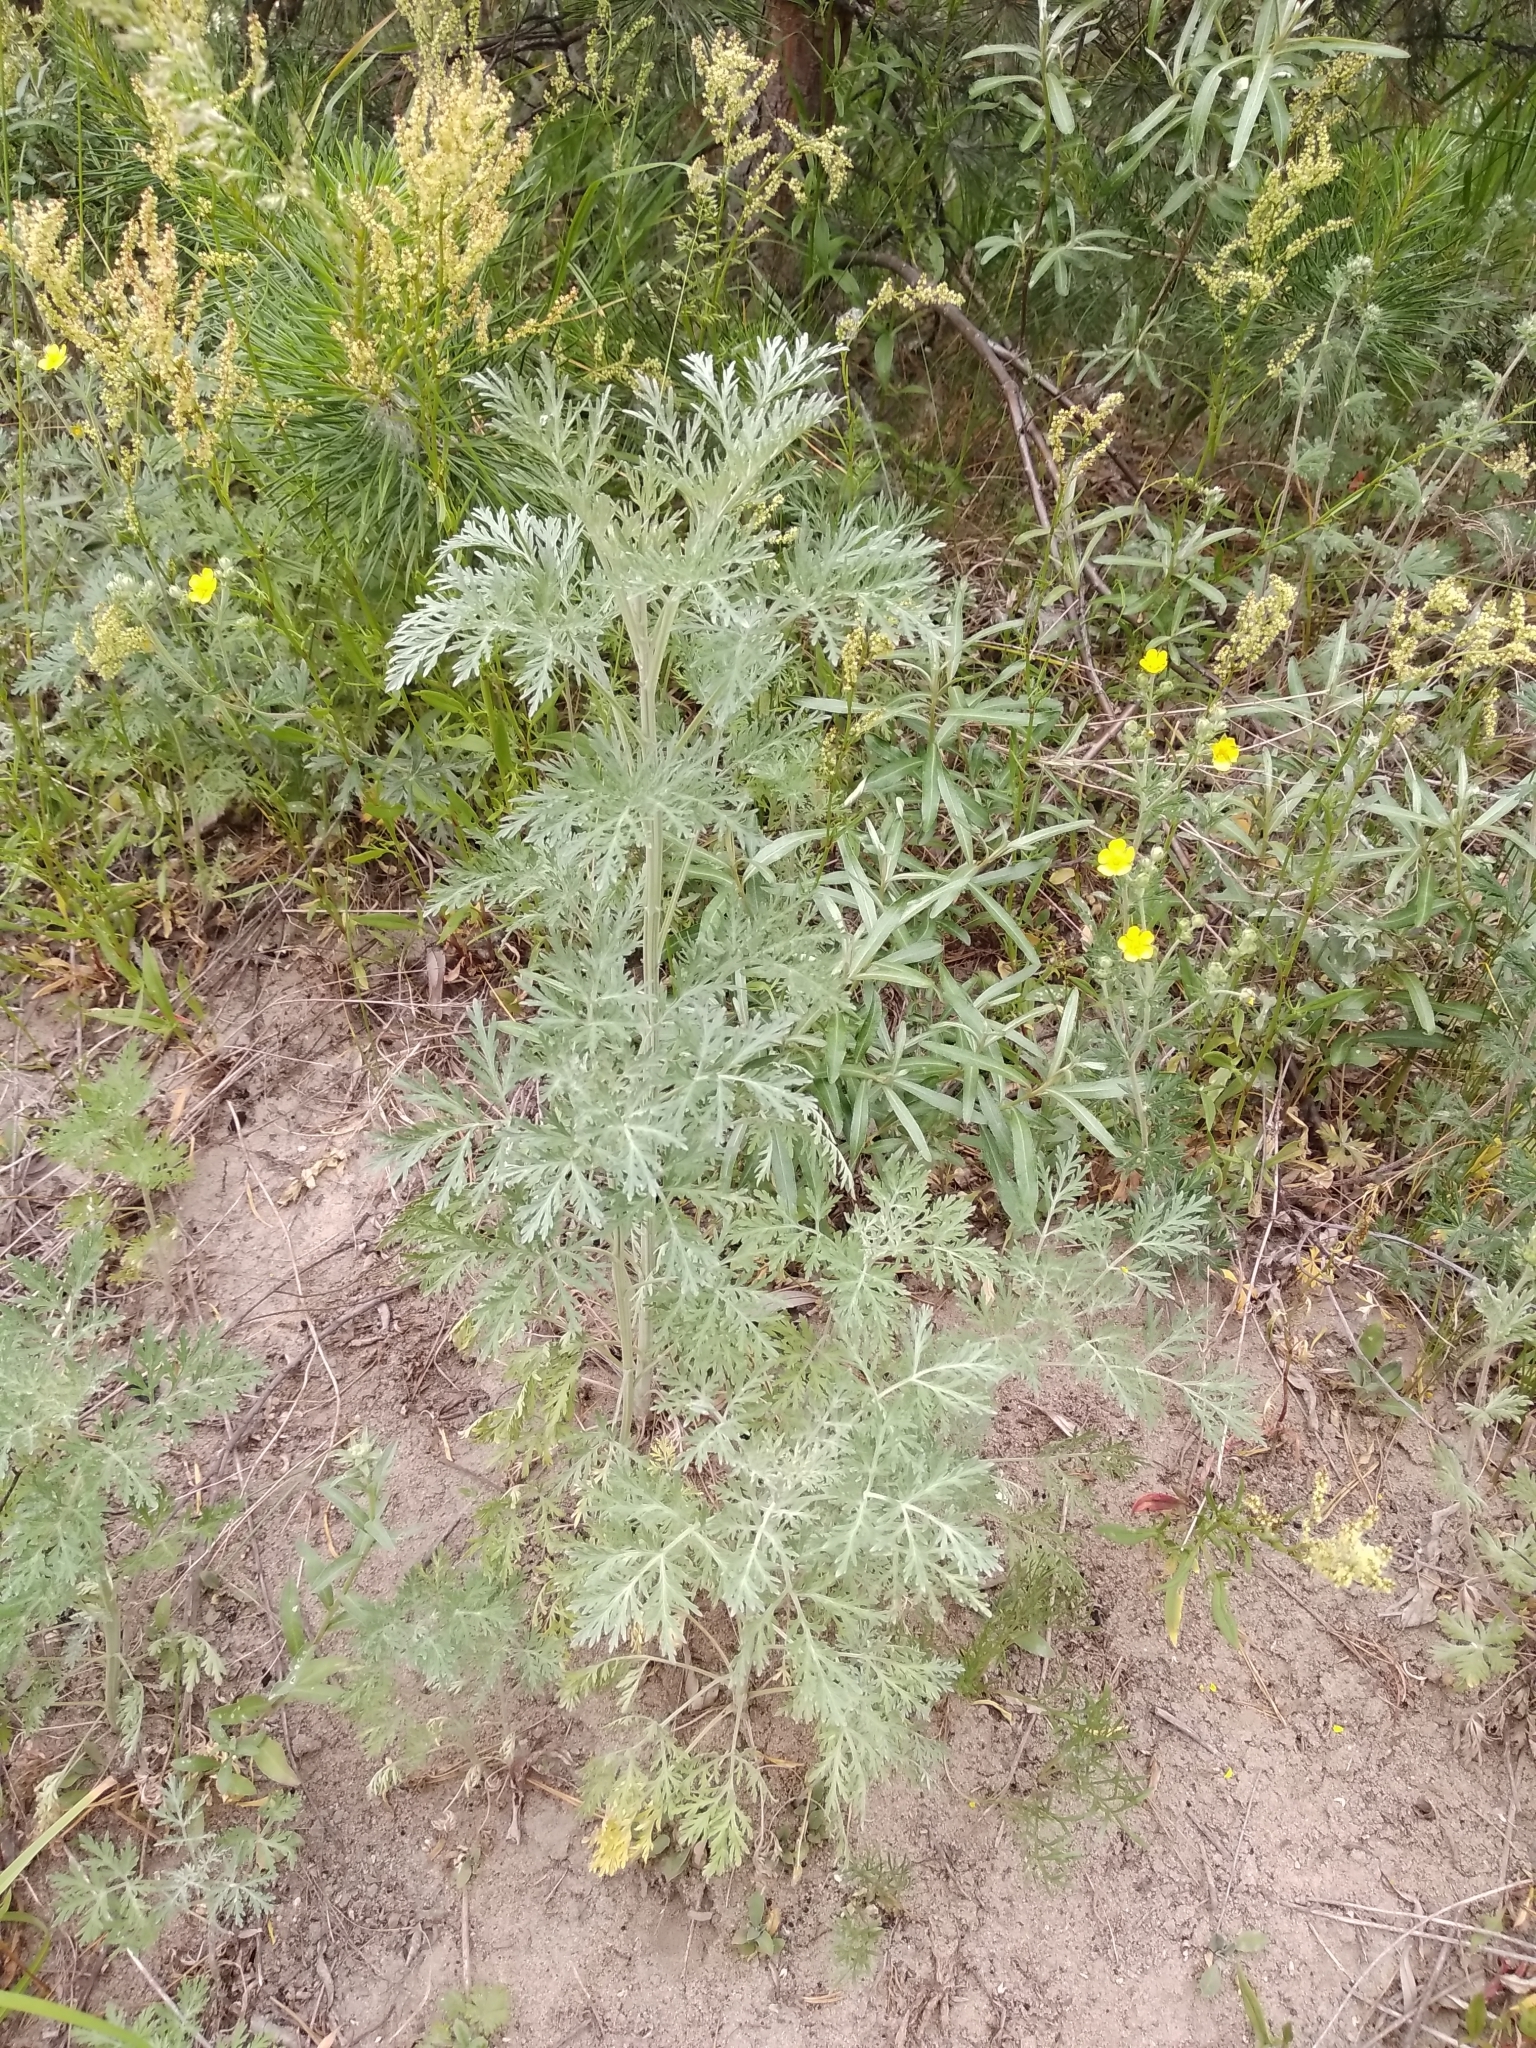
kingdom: Plantae
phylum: Tracheophyta
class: Magnoliopsida
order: Asterales
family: Asteraceae
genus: Artemisia
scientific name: Artemisia vulgaris
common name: Mugwort
